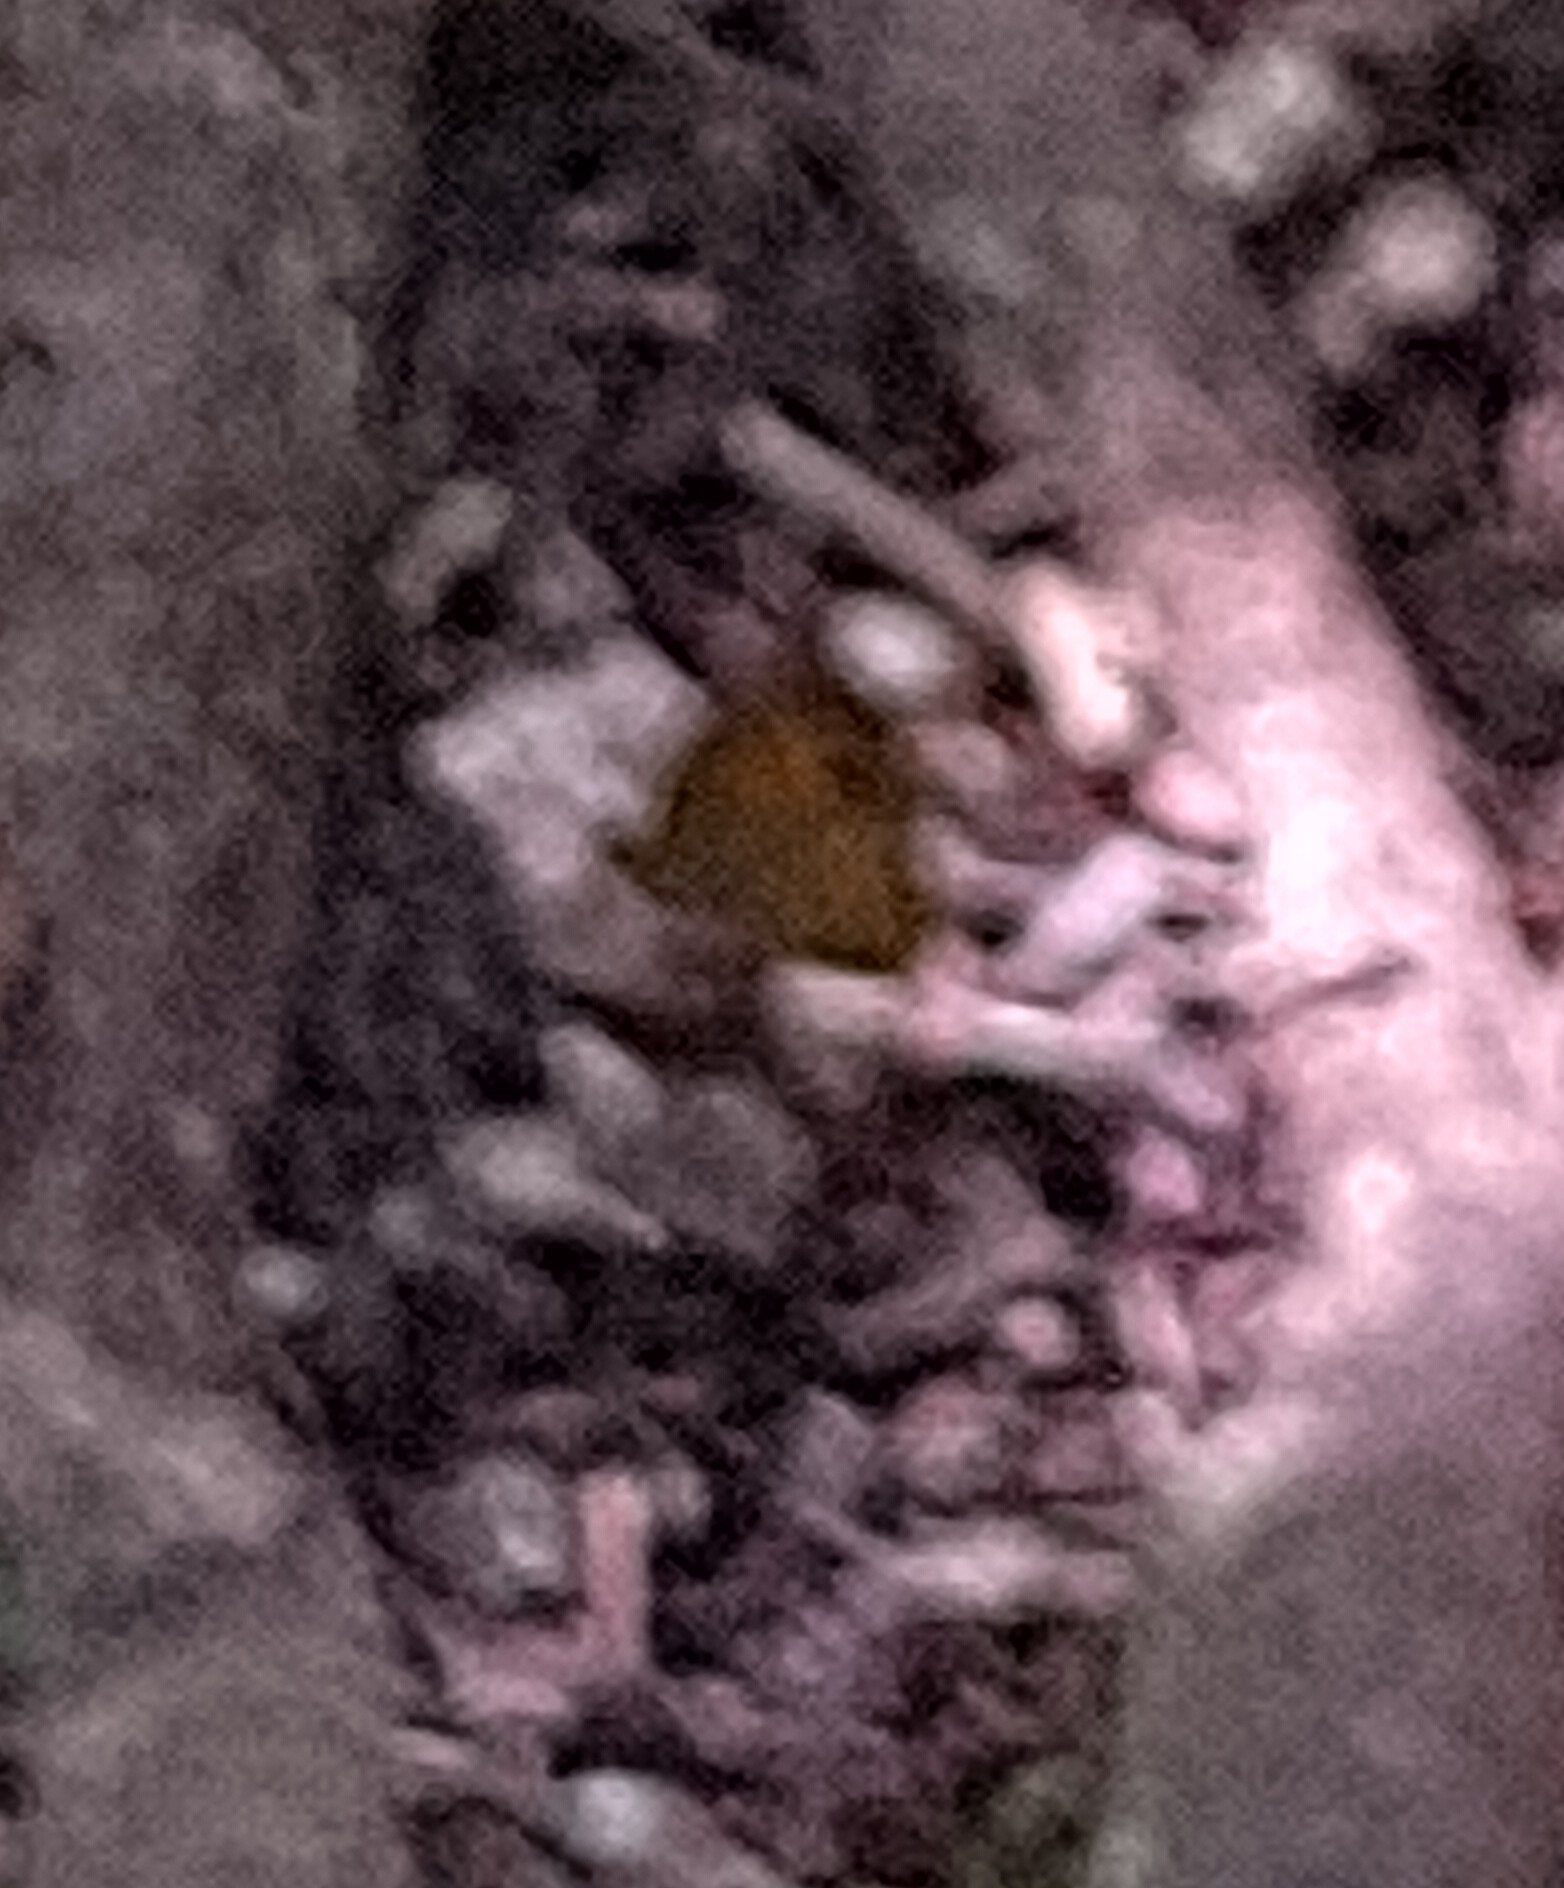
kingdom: Animalia
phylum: Arthropoda
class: Insecta
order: Lepidoptera
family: Nymphalidae
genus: Henotesia
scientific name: Henotesia narcissus
